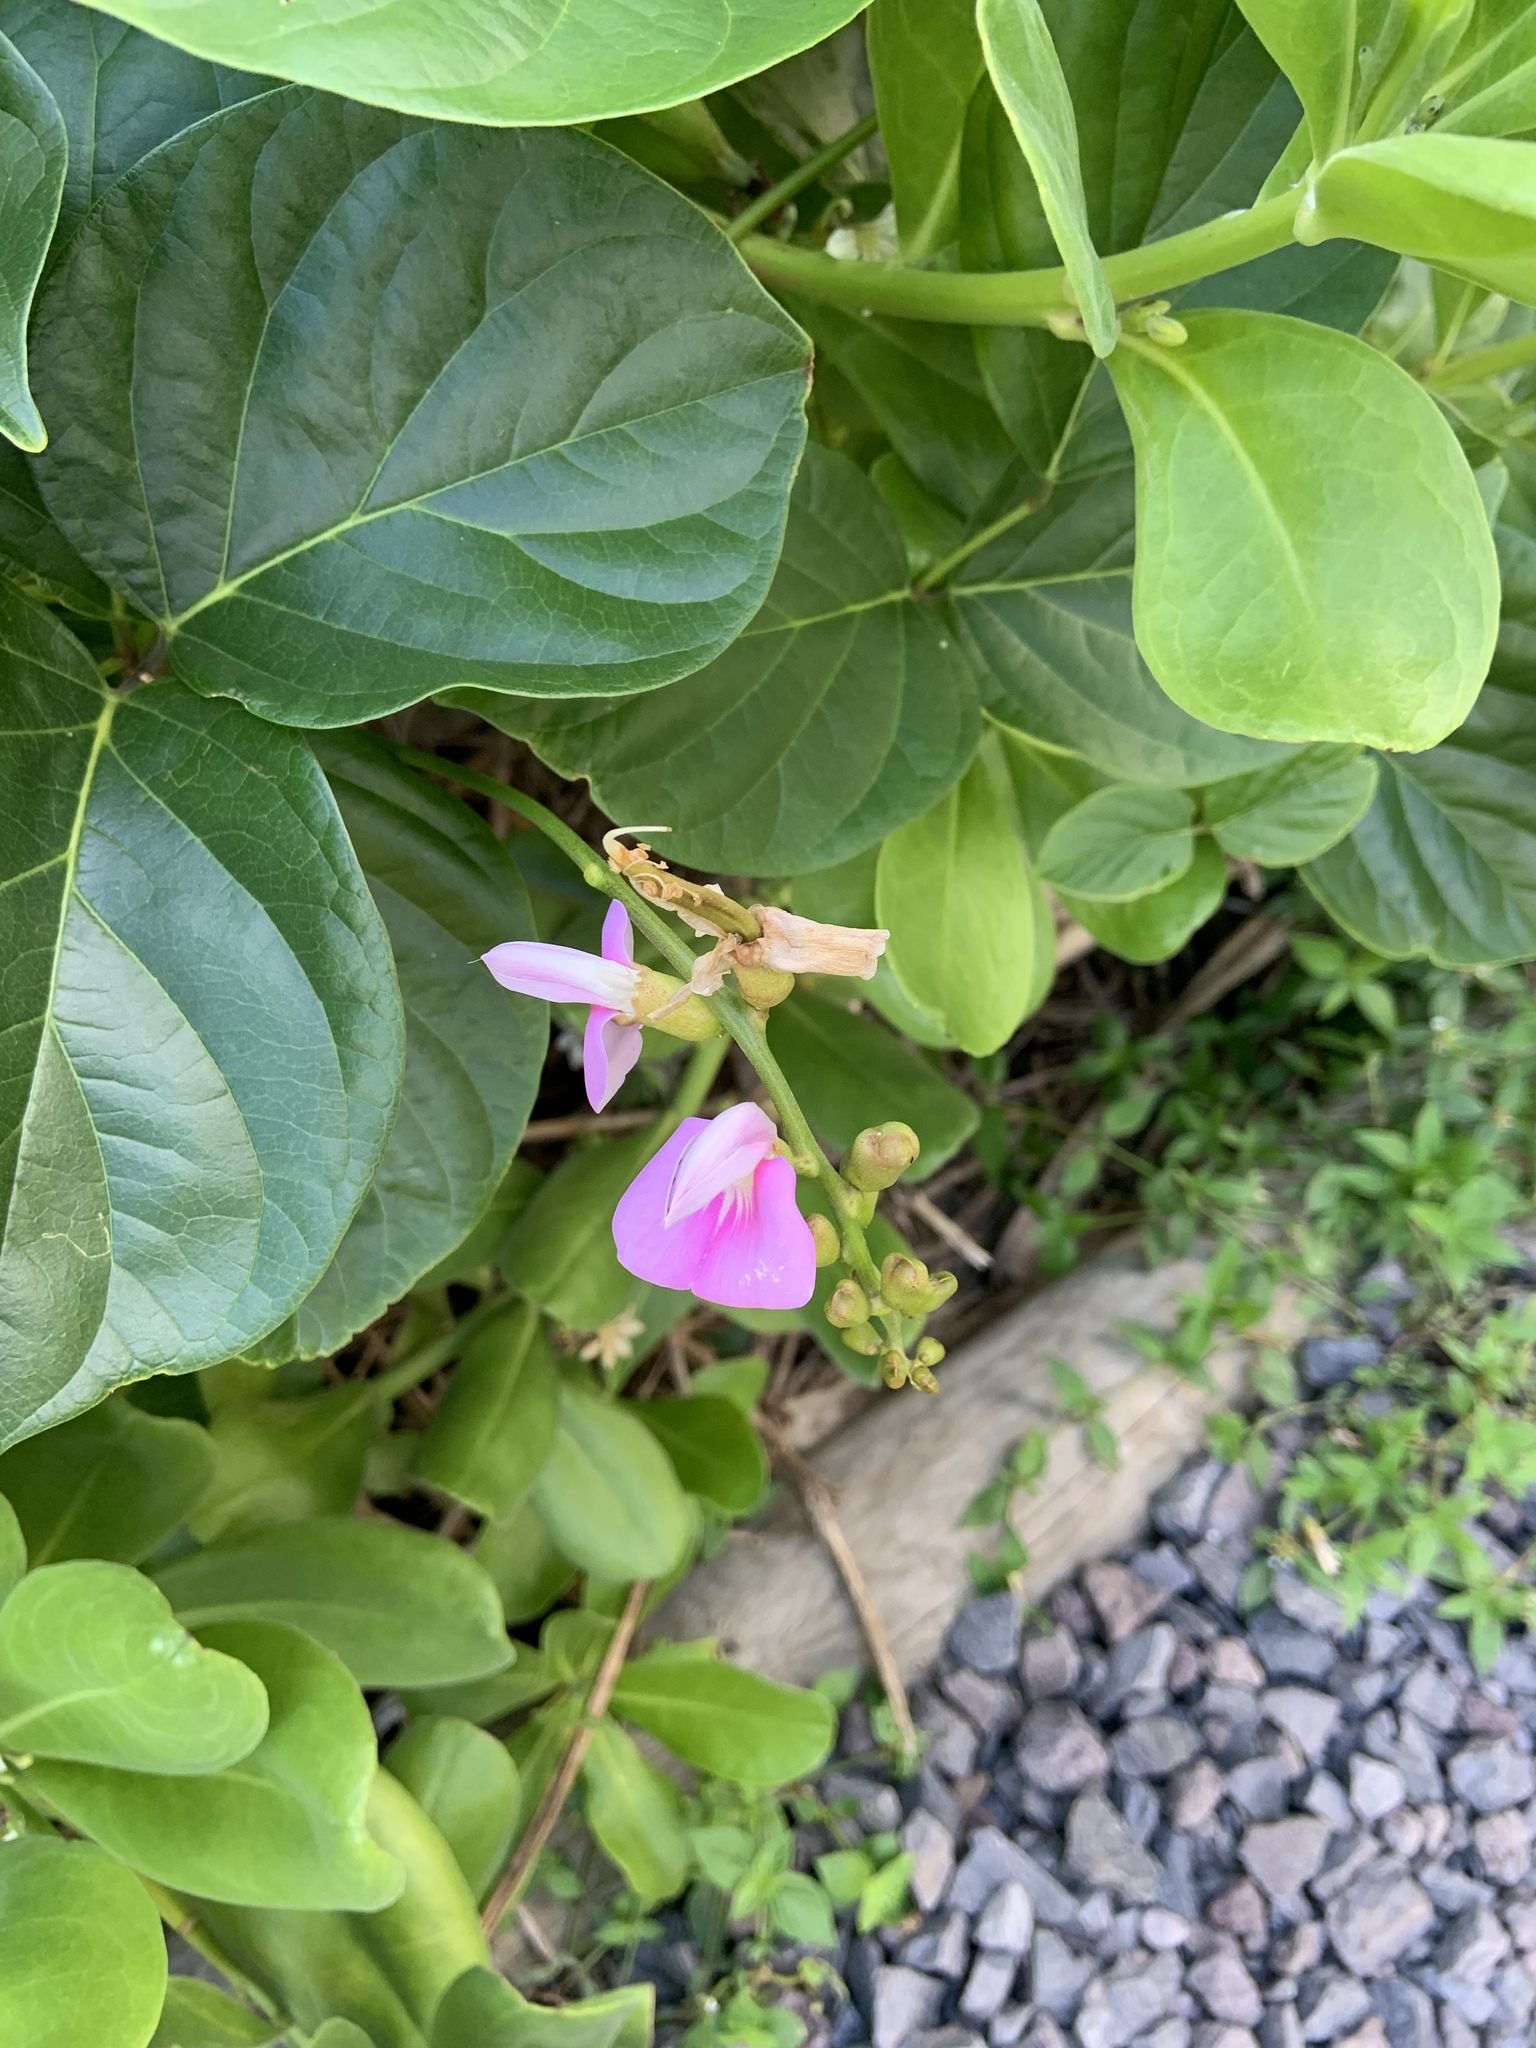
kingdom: Plantae
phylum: Tracheophyta
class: Magnoliopsida
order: Fabales
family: Fabaceae
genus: Canavalia
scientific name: Canavalia cathartica
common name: Maunaloa
